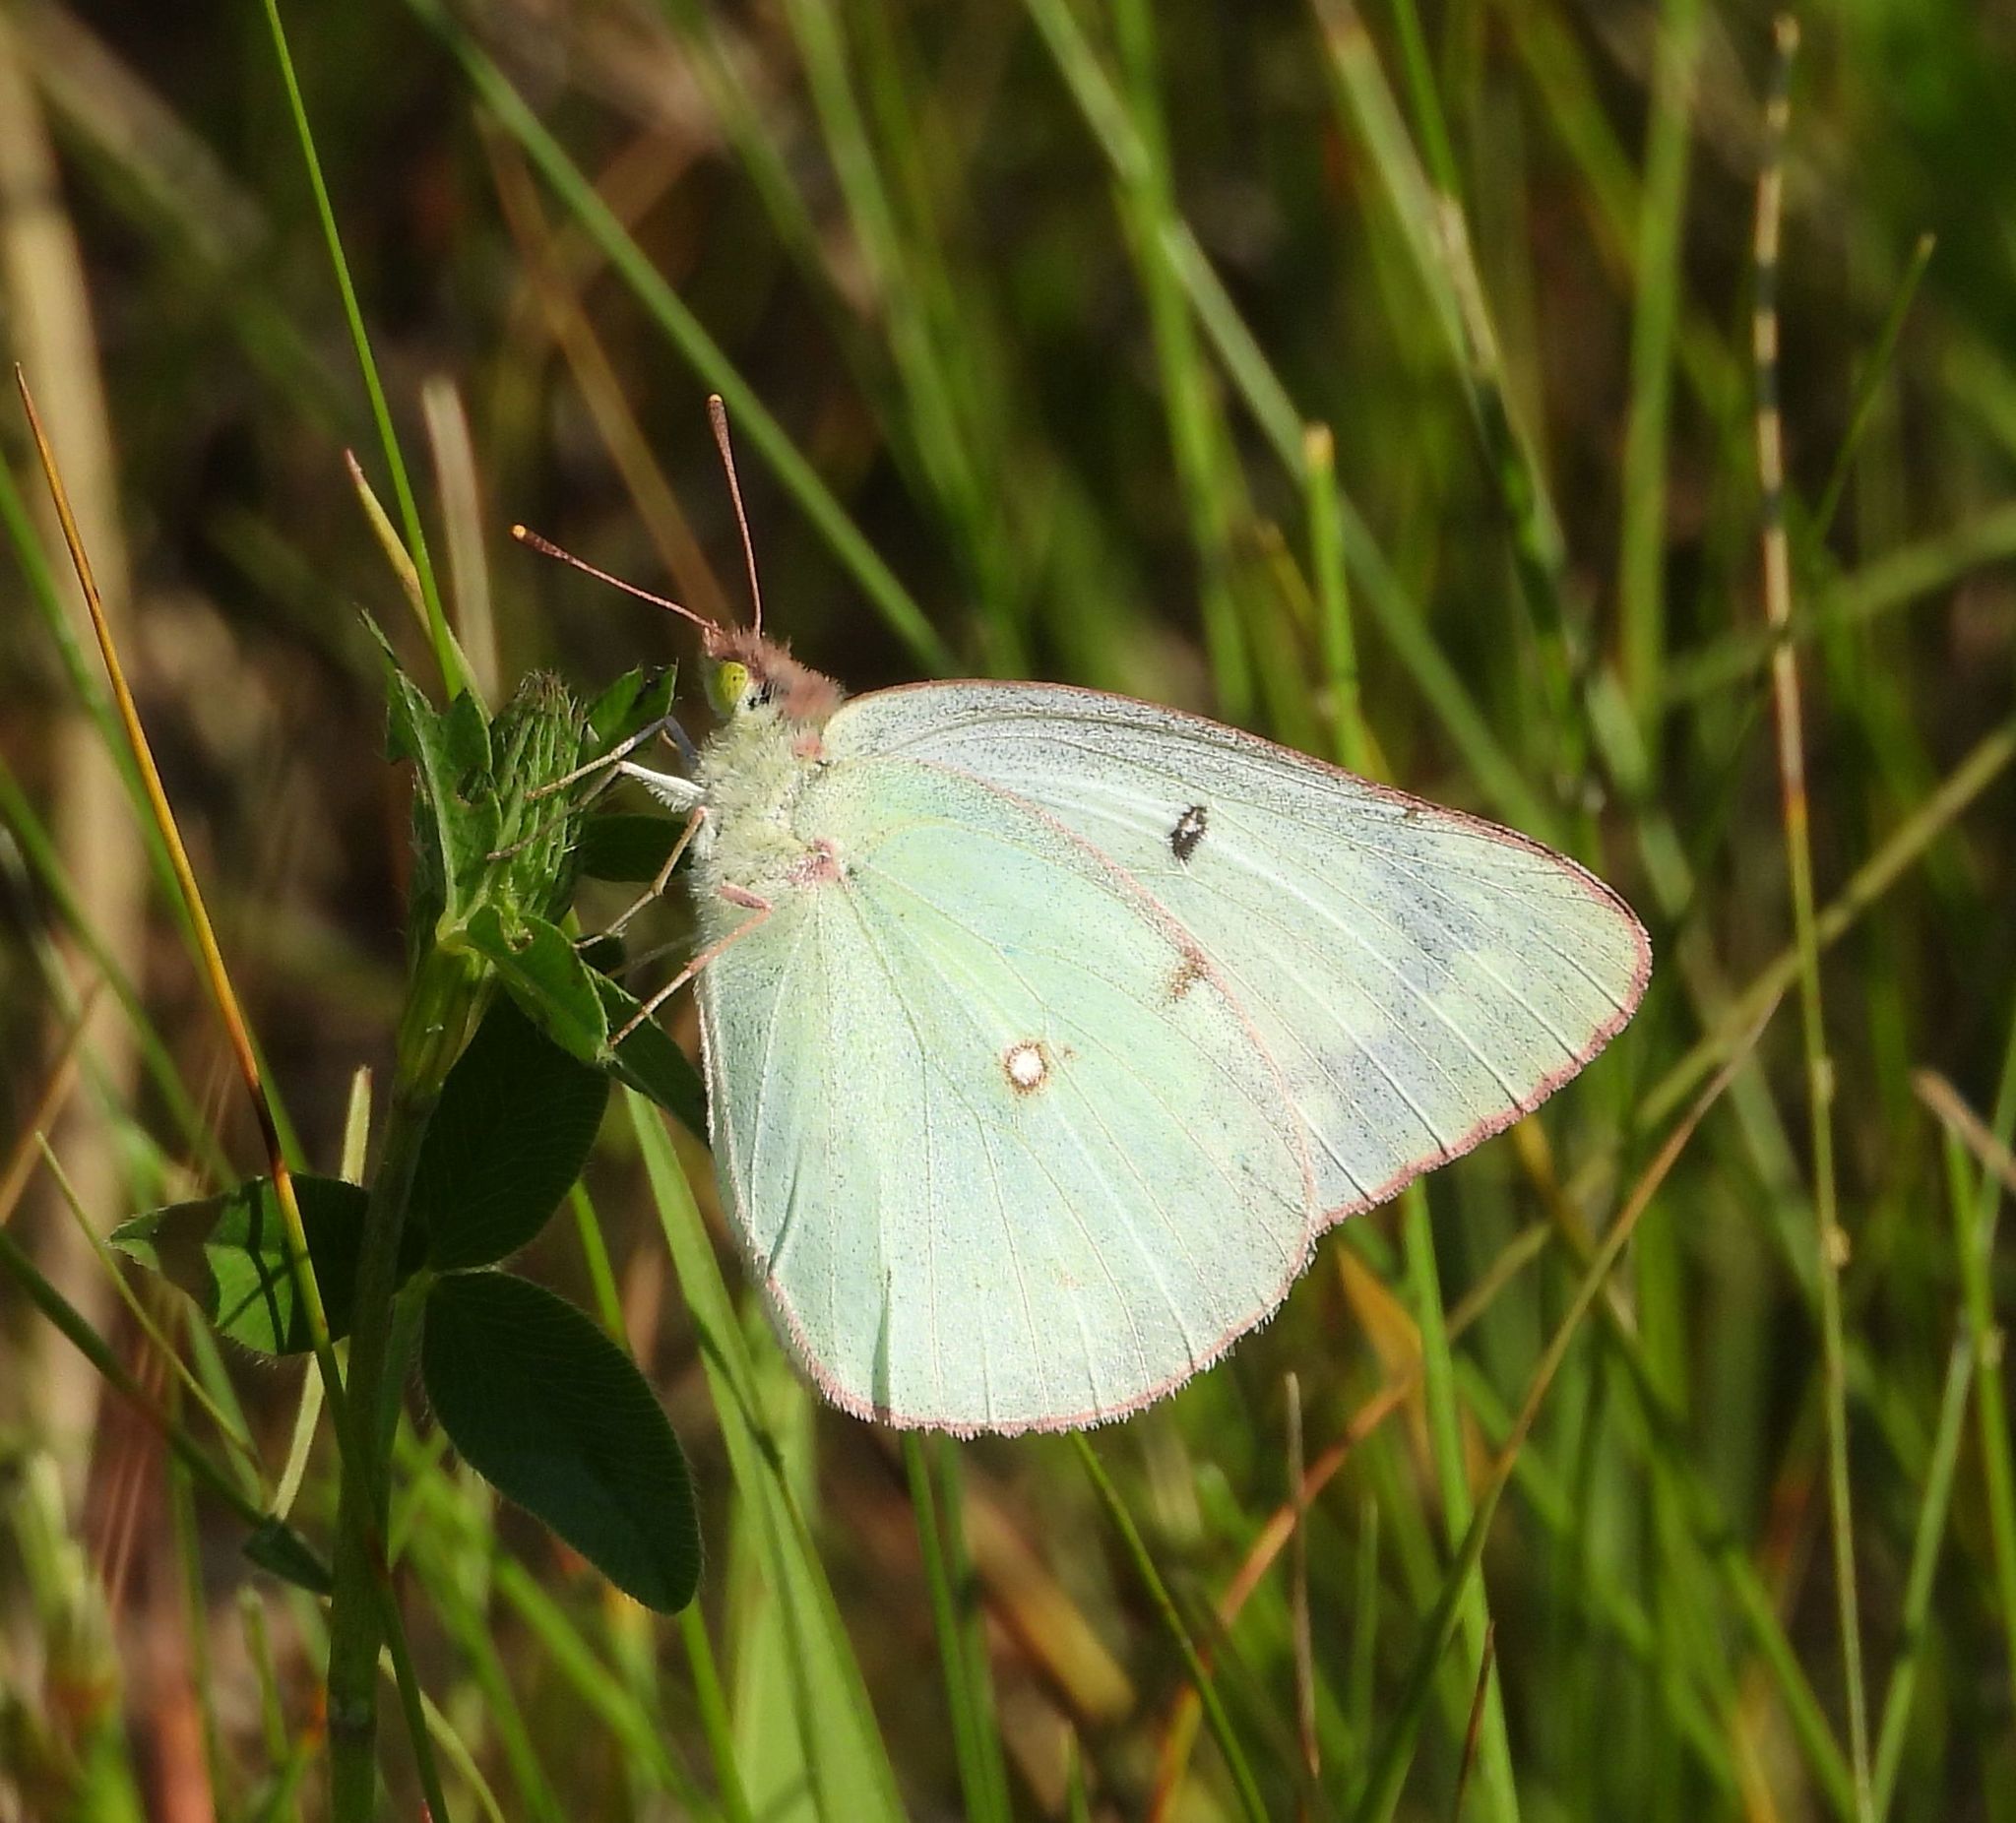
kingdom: Animalia
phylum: Arthropoda
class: Insecta
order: Lepidoptera
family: Pieridae
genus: Colias
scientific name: Colias philodice
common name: Clouded sulphur
